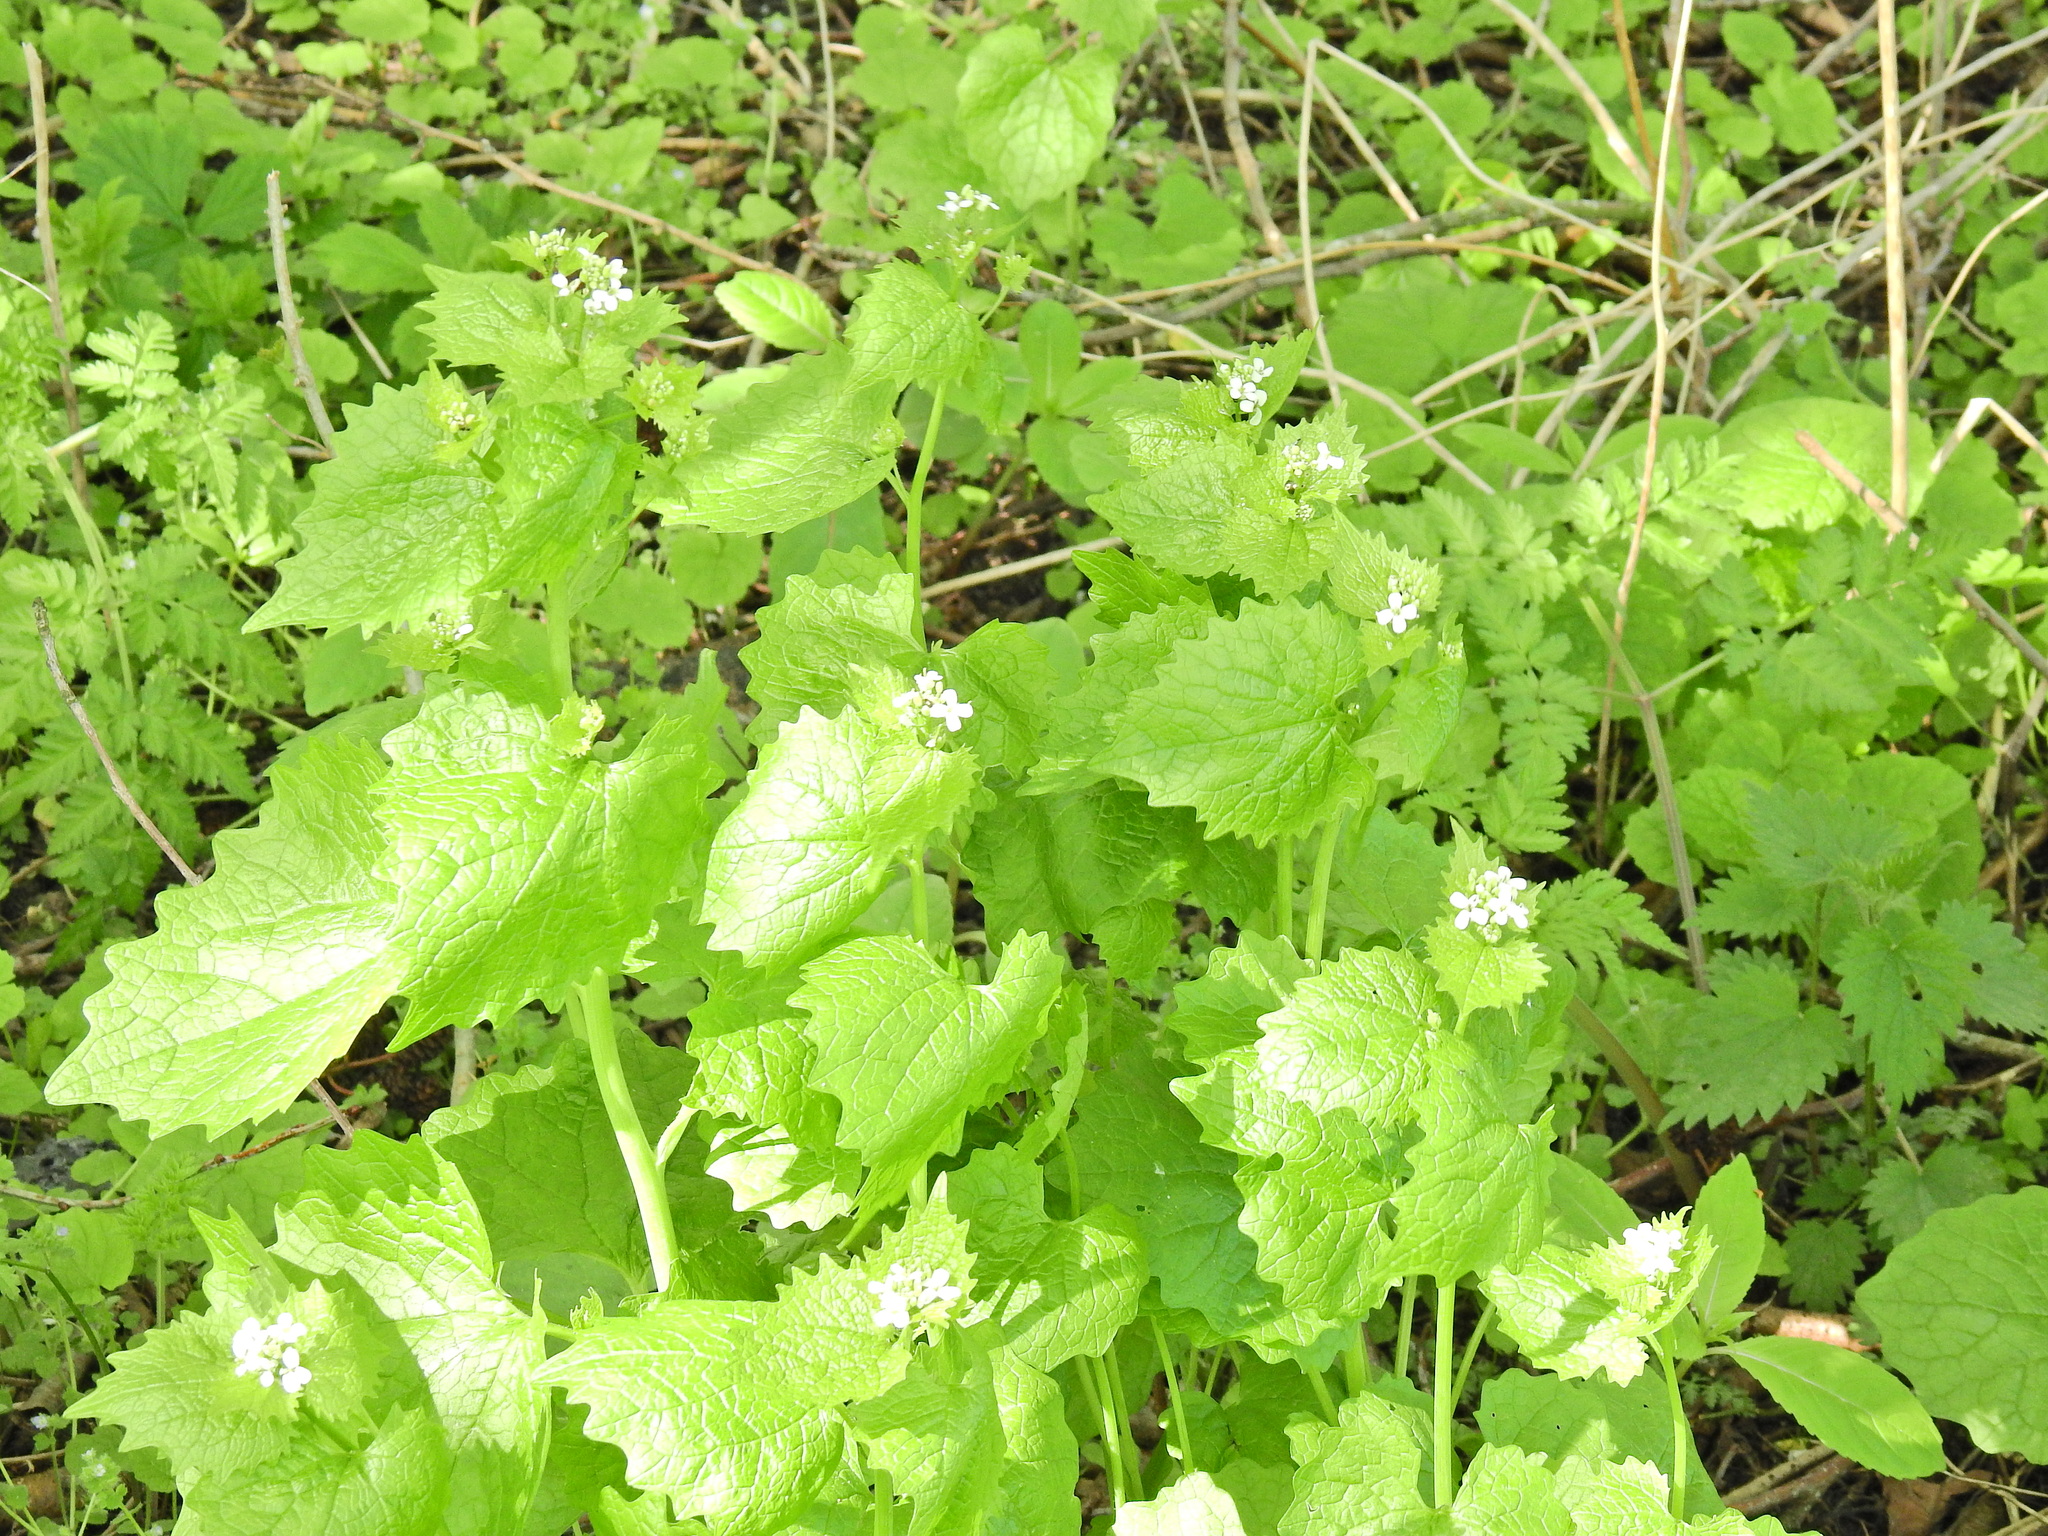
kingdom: Plantae
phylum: Tracheophyta
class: Magnoliopsida
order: Brassicales
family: Brassicaceae
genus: Alliaria
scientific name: Alliaria petiolata
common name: Garlic mustard
